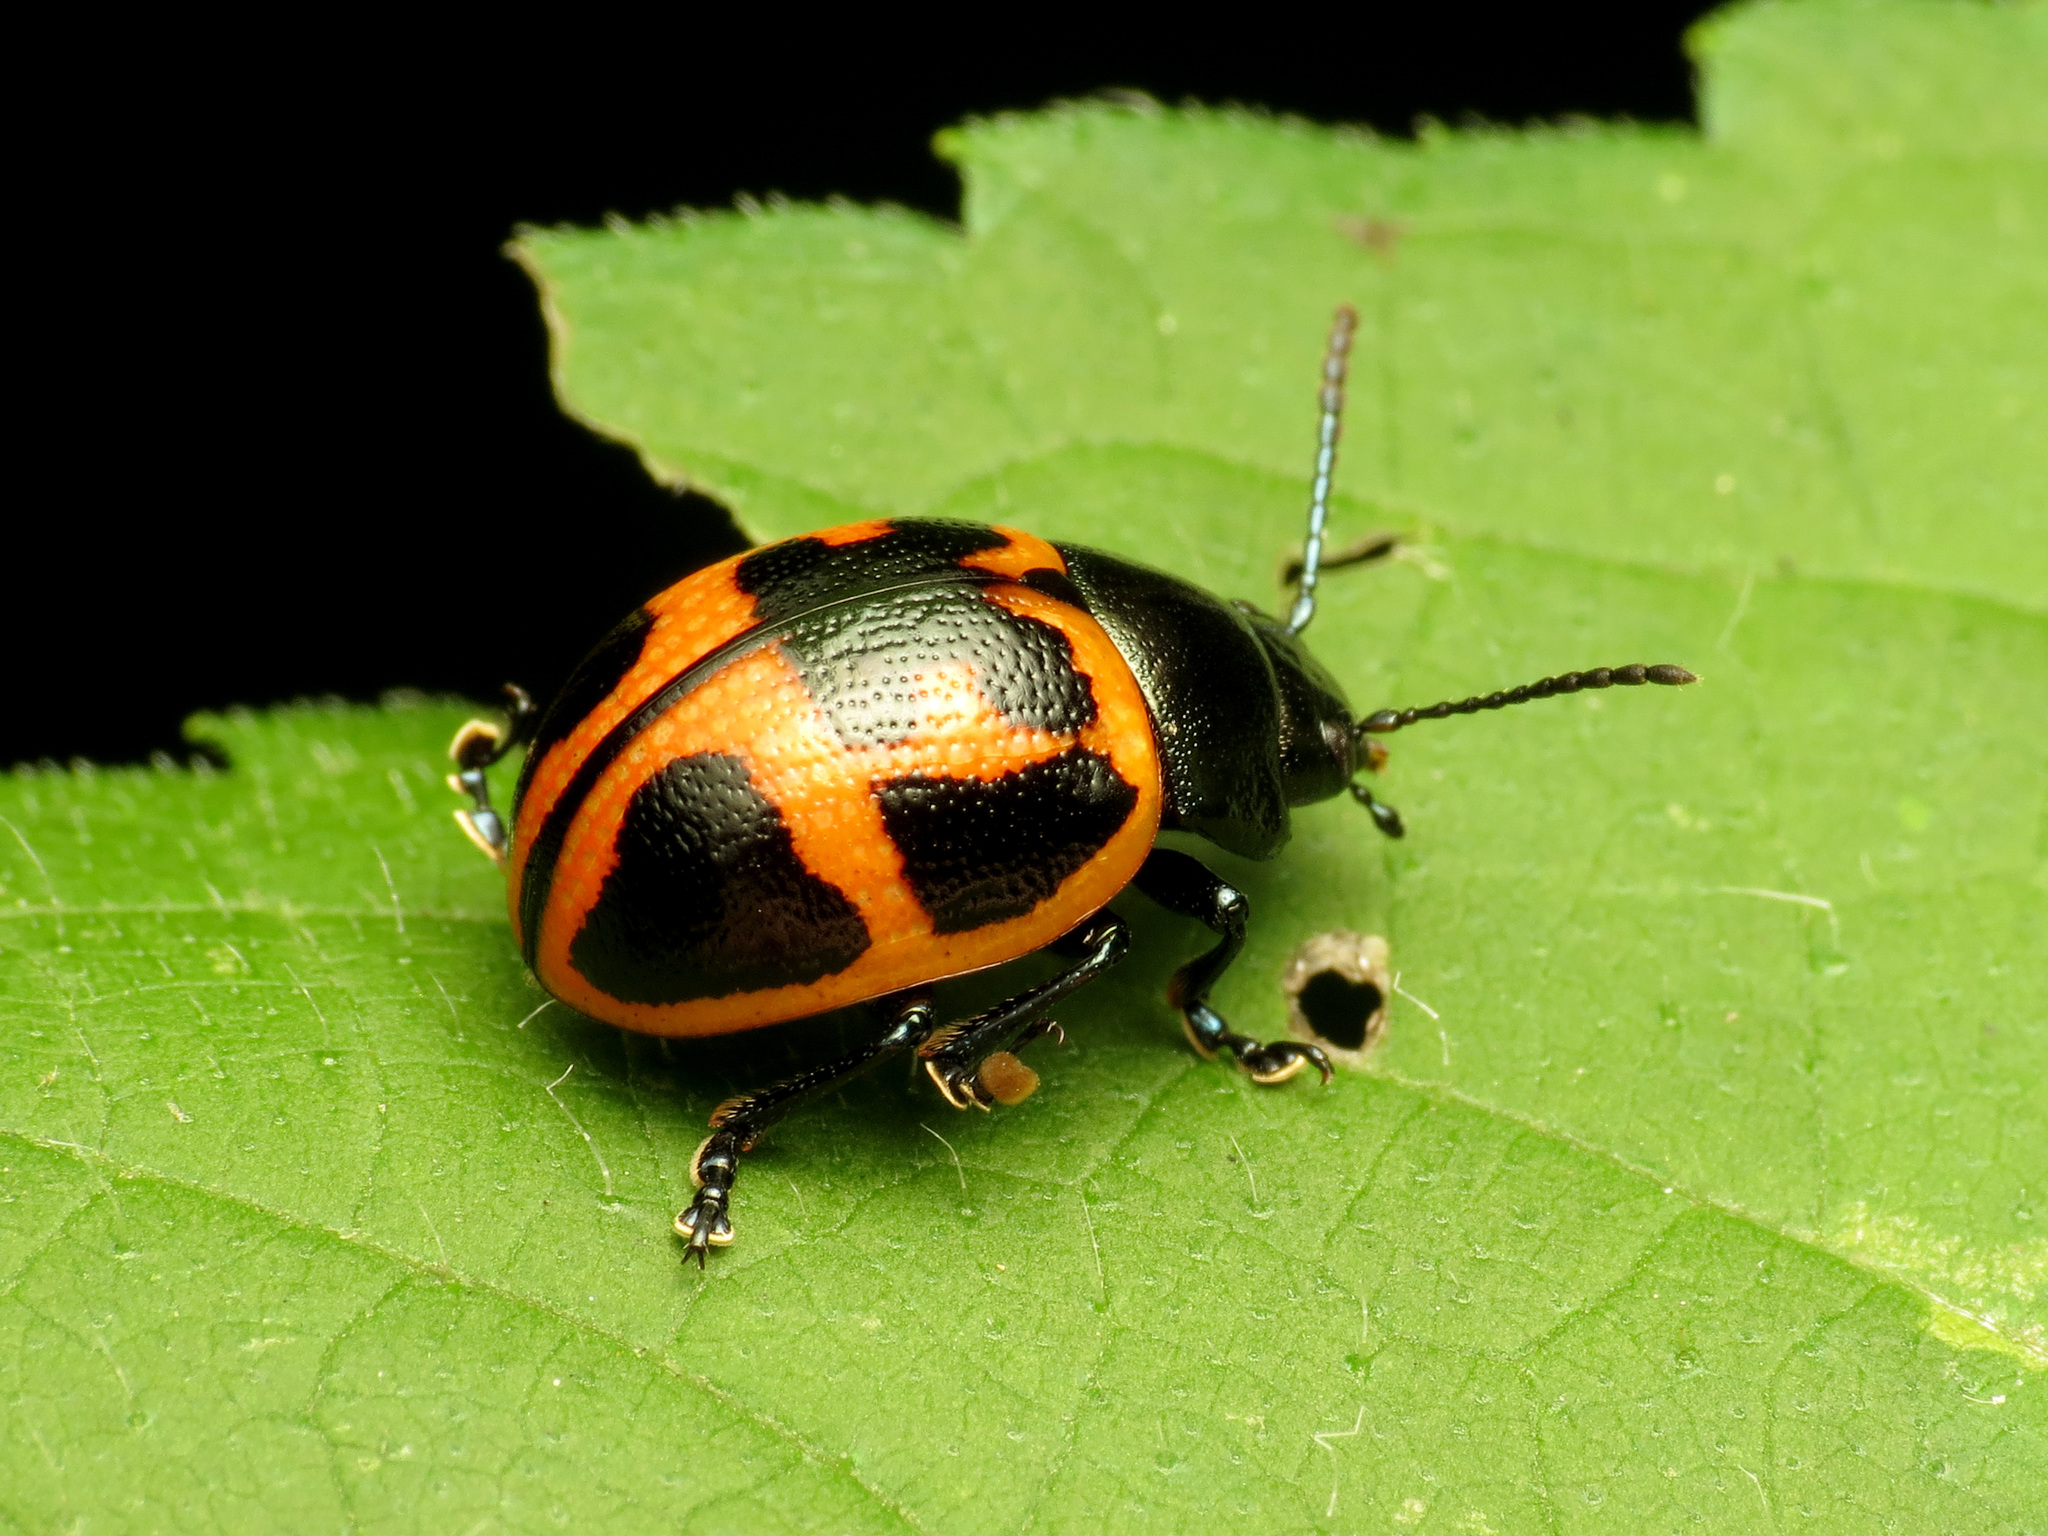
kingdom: Animalia
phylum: Arthropoda
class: Insecta
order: Coleoptera
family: Chrysomelidae
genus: Labidomera
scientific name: Labidomera clivicollis
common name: Swamp milkweed leaf beetle
